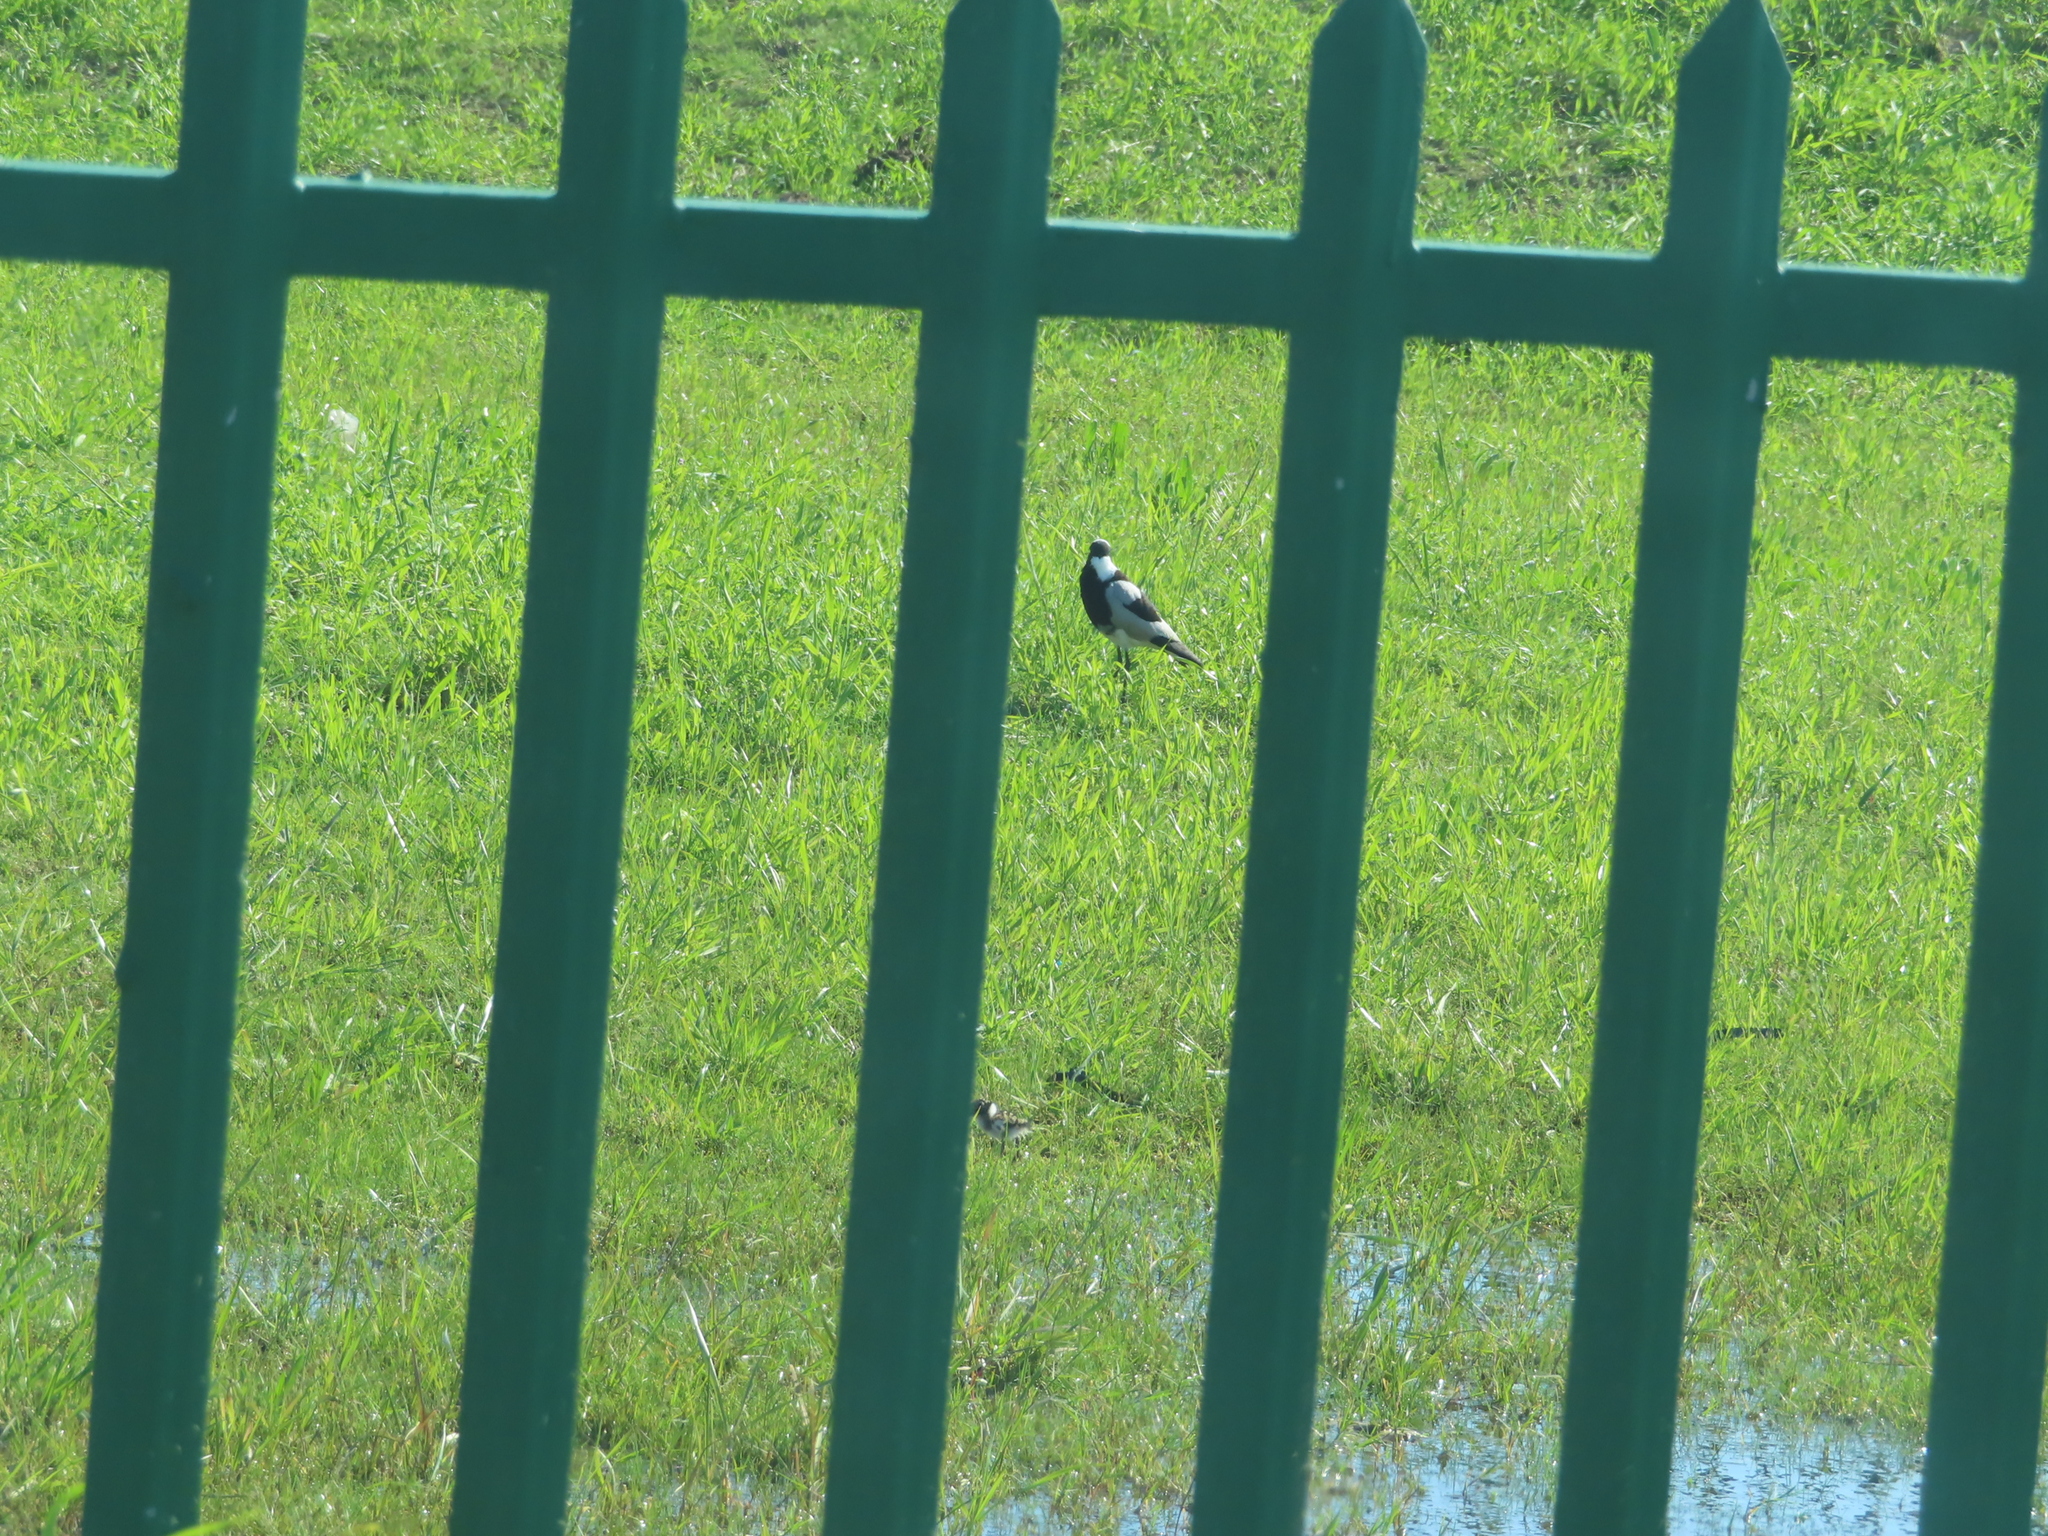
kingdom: Animalia
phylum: Chordata
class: Aves
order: Charadriiformes
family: Charadriidae
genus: Vanellus
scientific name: Vanellus armatus
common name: Blacksmith lapwing
